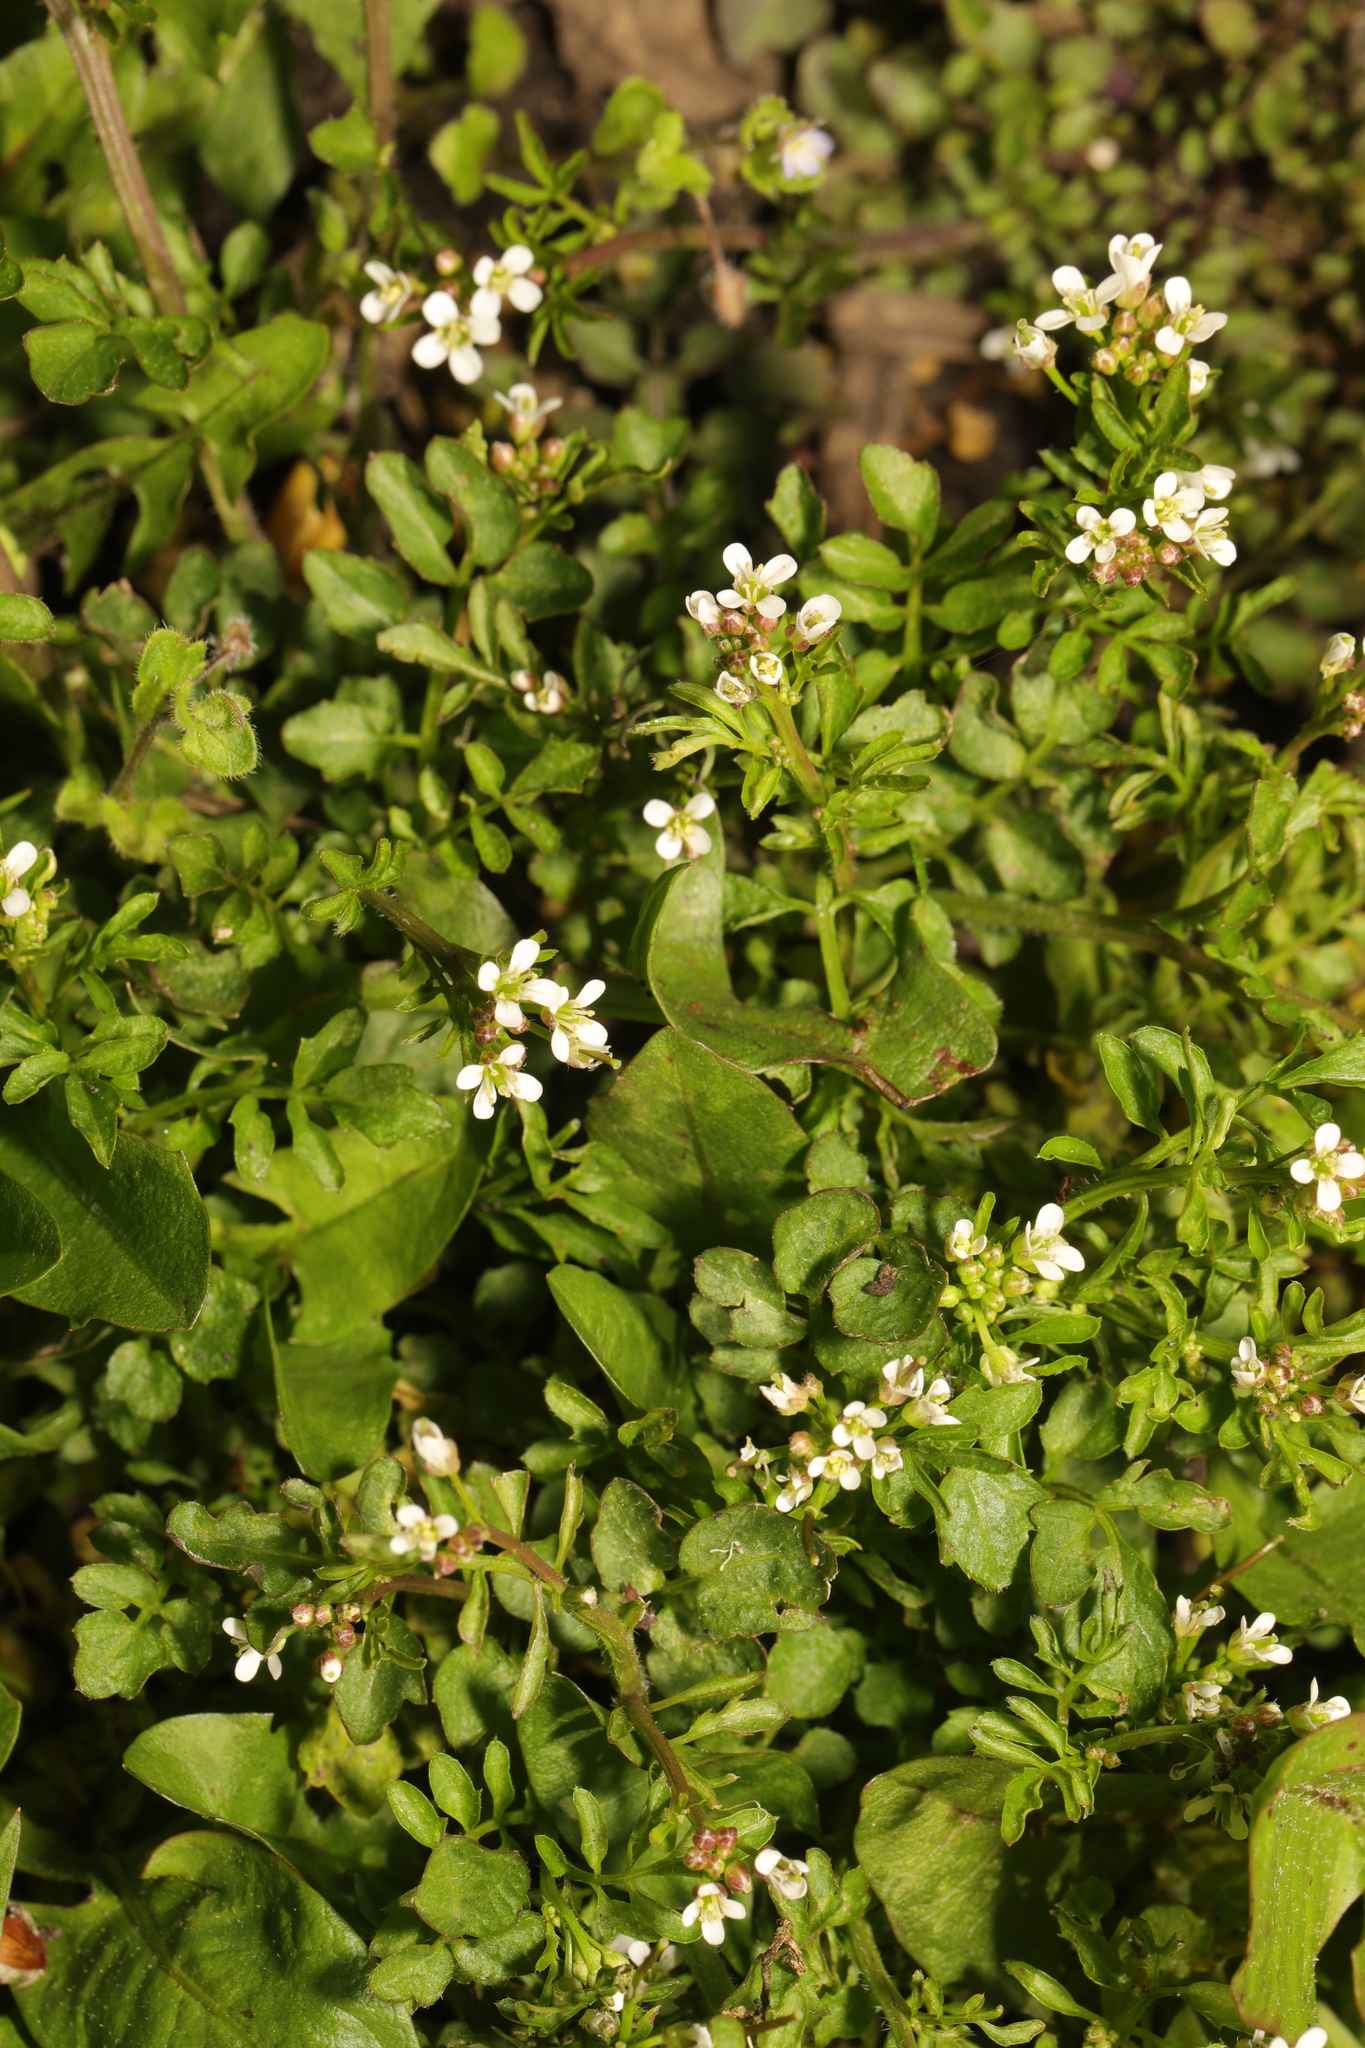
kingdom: Plantae
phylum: Tracheophyta
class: Magnoliopsida
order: Brassicales
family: Brassicaceae
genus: Cardamine
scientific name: Cardamine flexuosa
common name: Woodland bittercress
